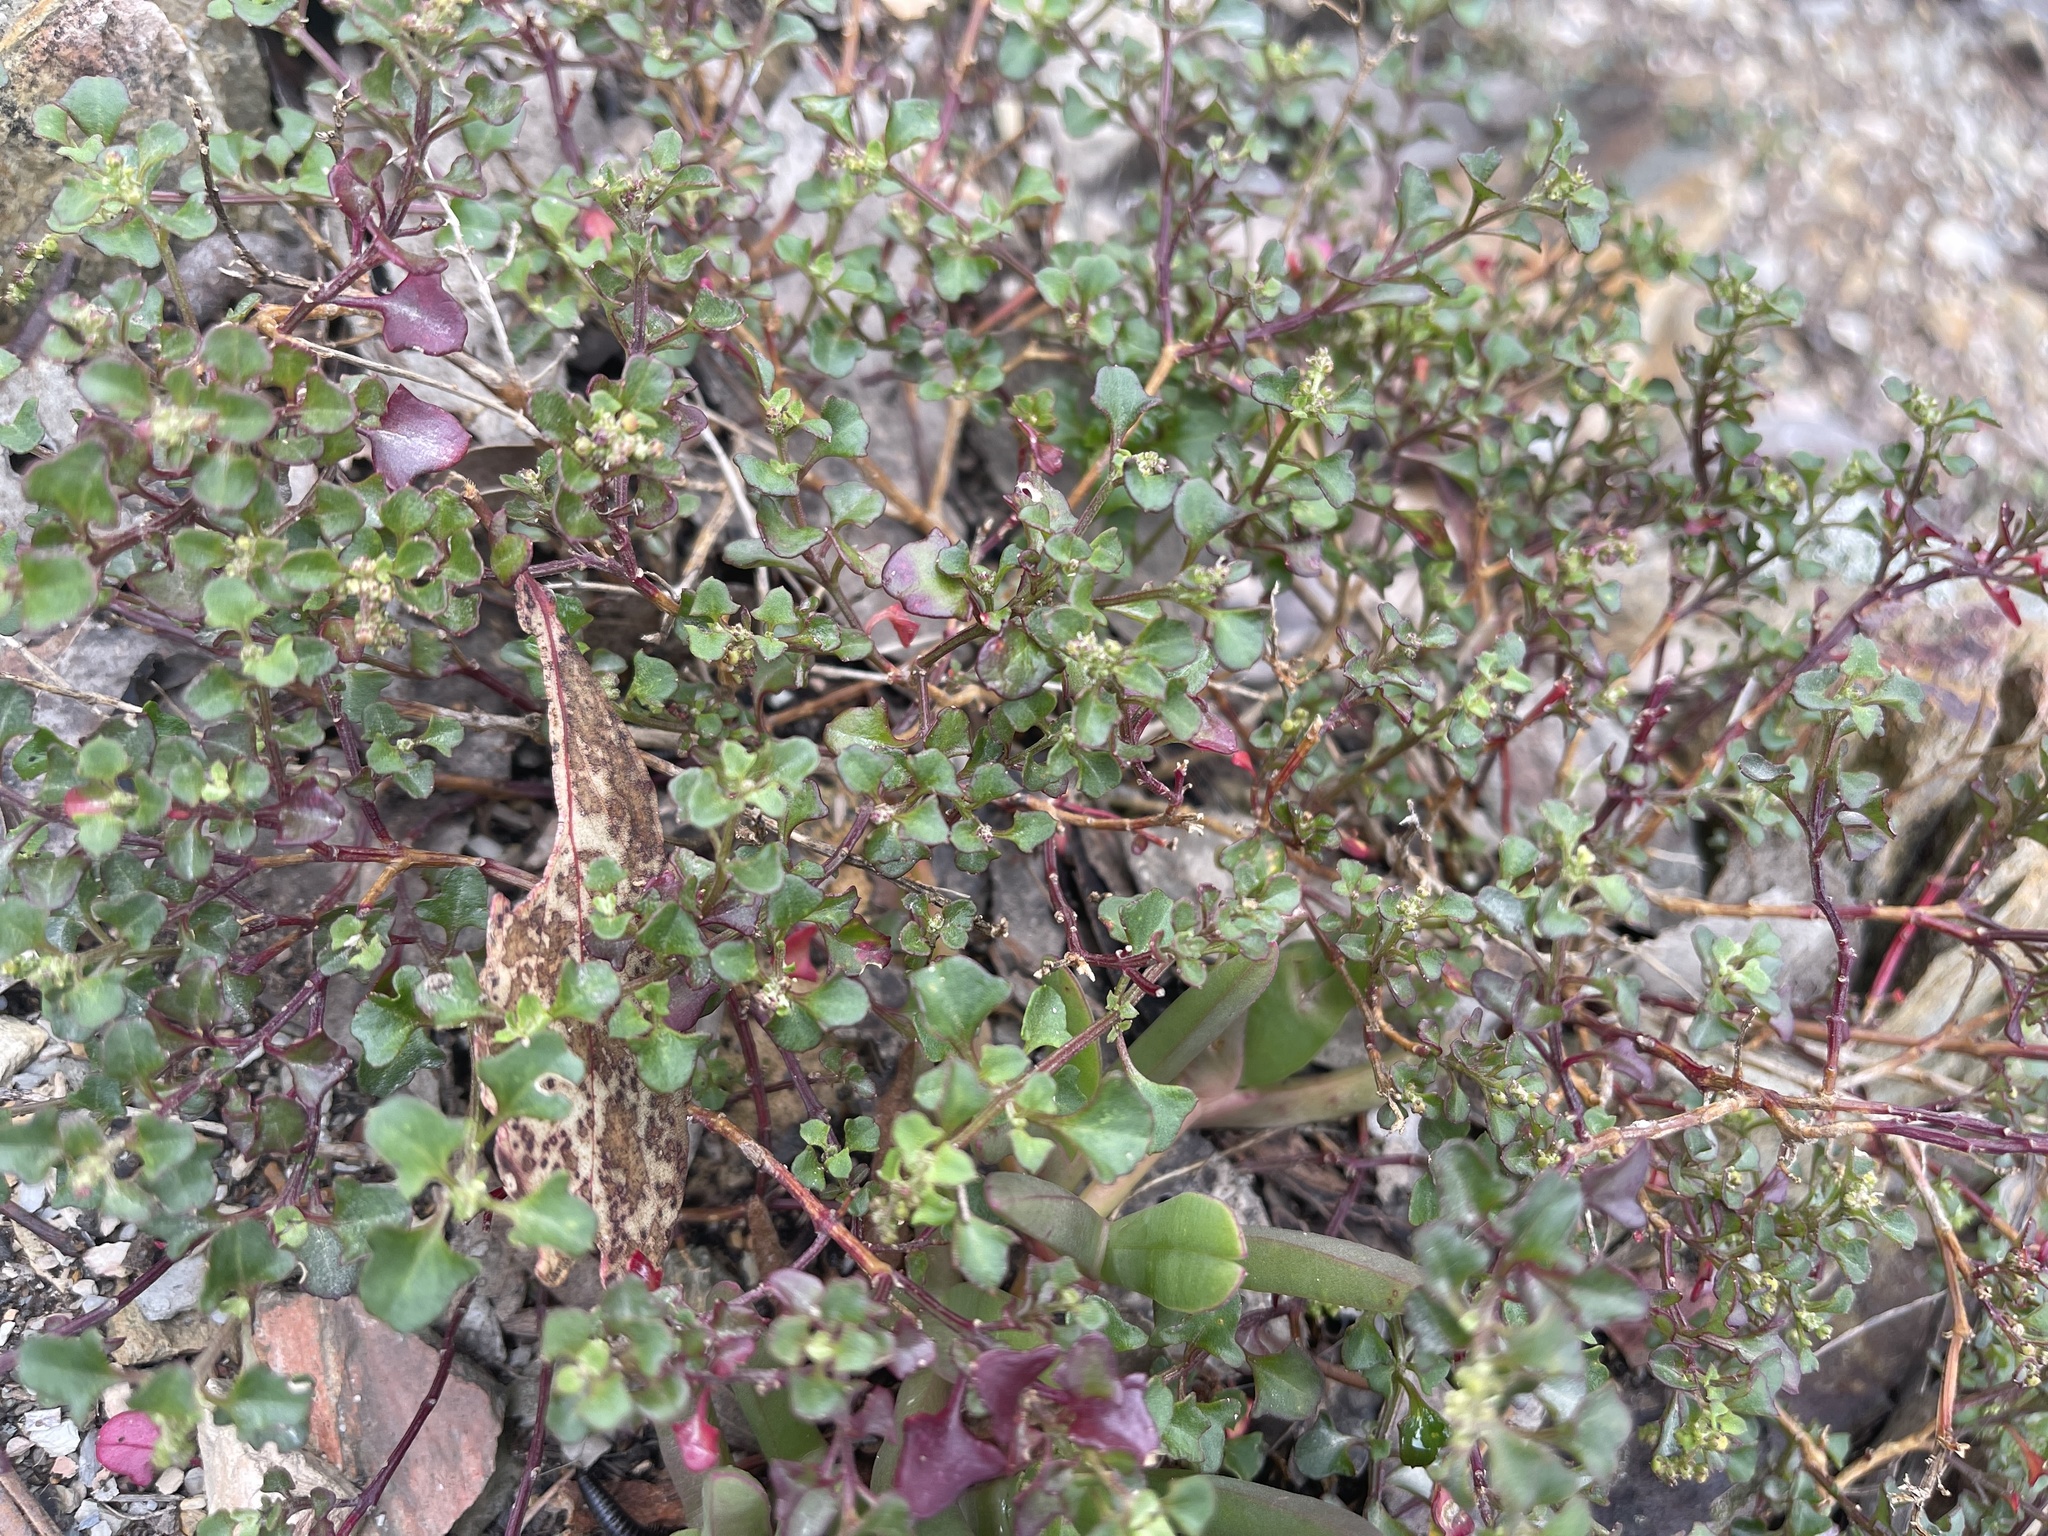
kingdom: Plantae
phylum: Tracheophyta
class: Magnoliopsida
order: Caryophyllales
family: Amaranthaceae
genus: Chenopodium
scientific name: Chenopodium robertianum
